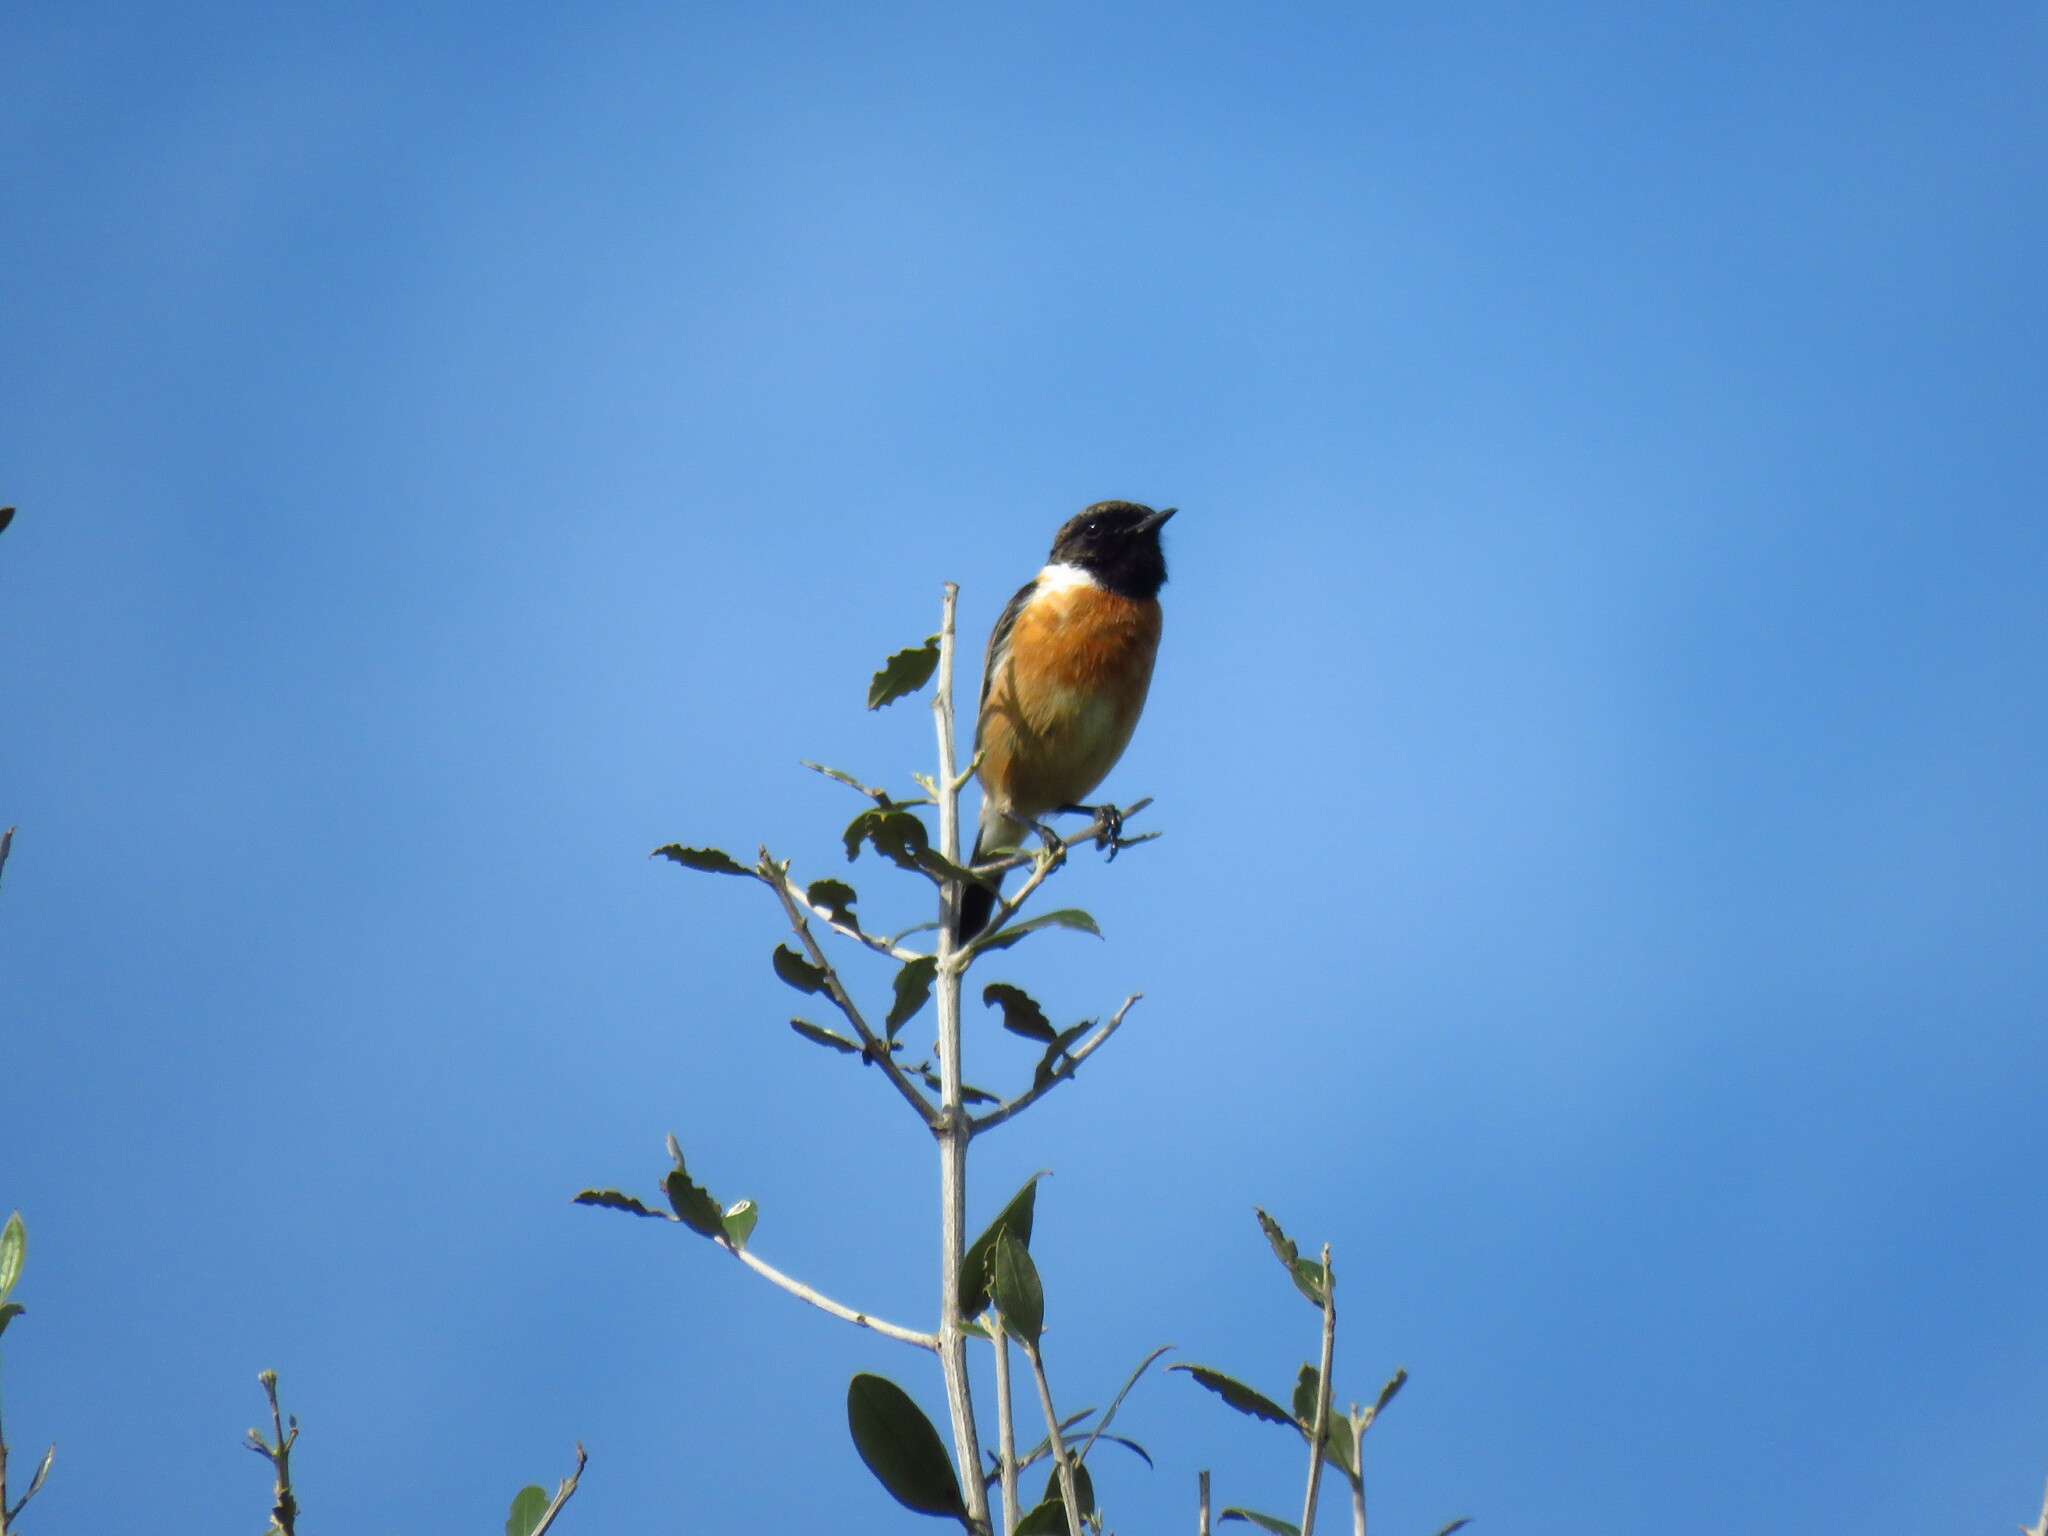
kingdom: Animalia
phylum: Chordata
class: Aves
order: Passeriformes
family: Muscicapidae
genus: Saxicola
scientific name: Saxicola rubicola
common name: European stonechat
